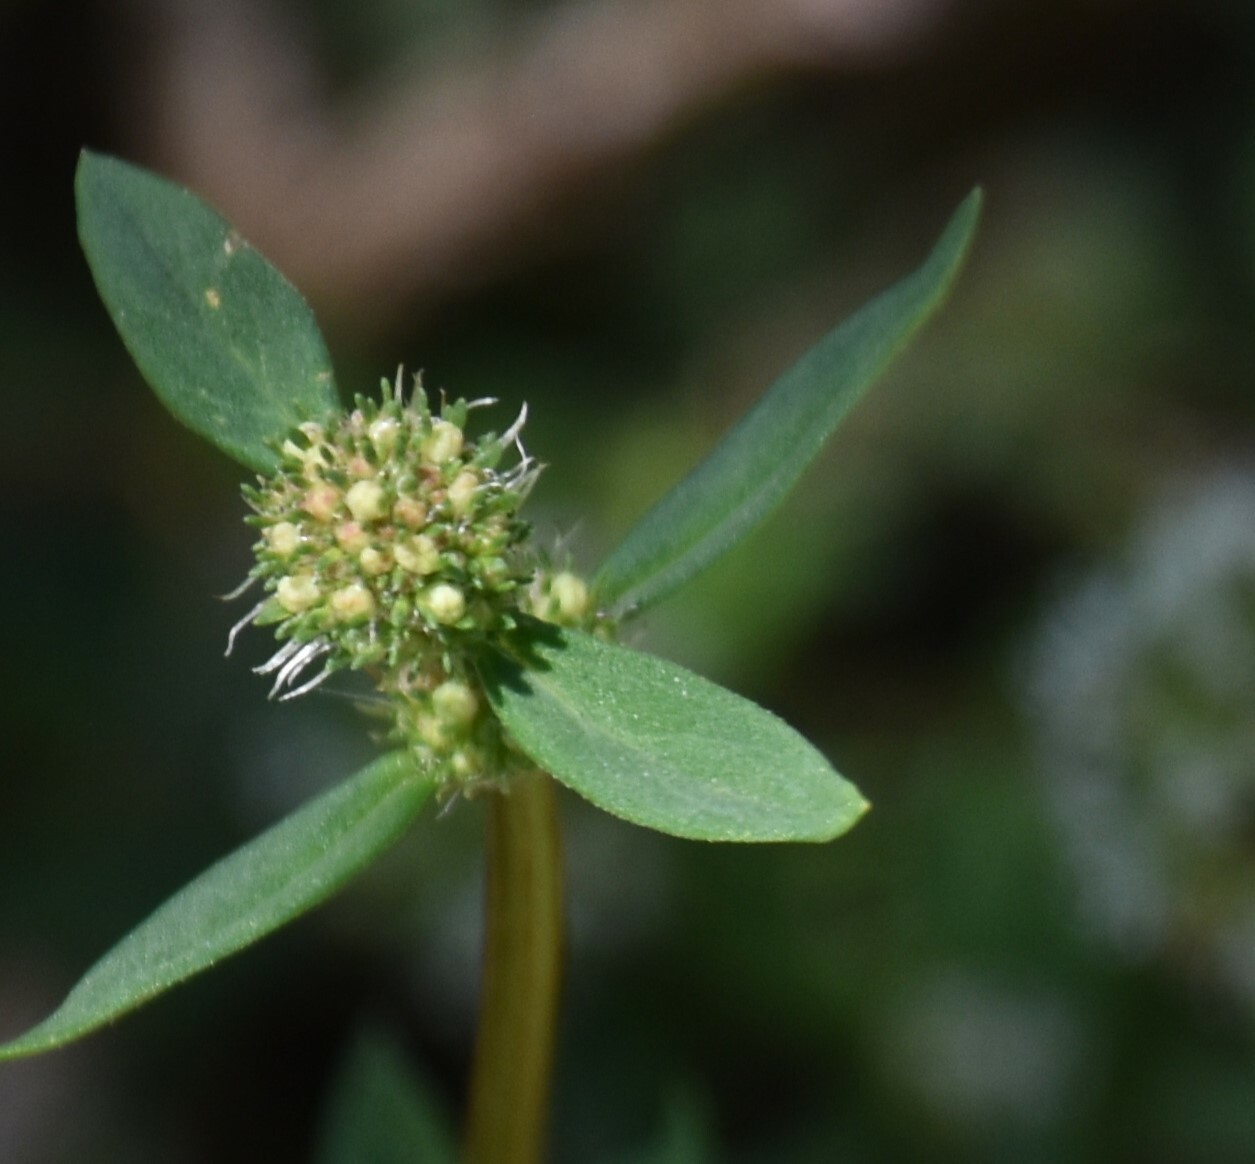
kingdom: Plantae
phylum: Tracheophyta
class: Magnoliopsida
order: Gentianales
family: Rubiaceae
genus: Spermacoce
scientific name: Spermacoce verticillata
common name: Shrubby false buttonweed
